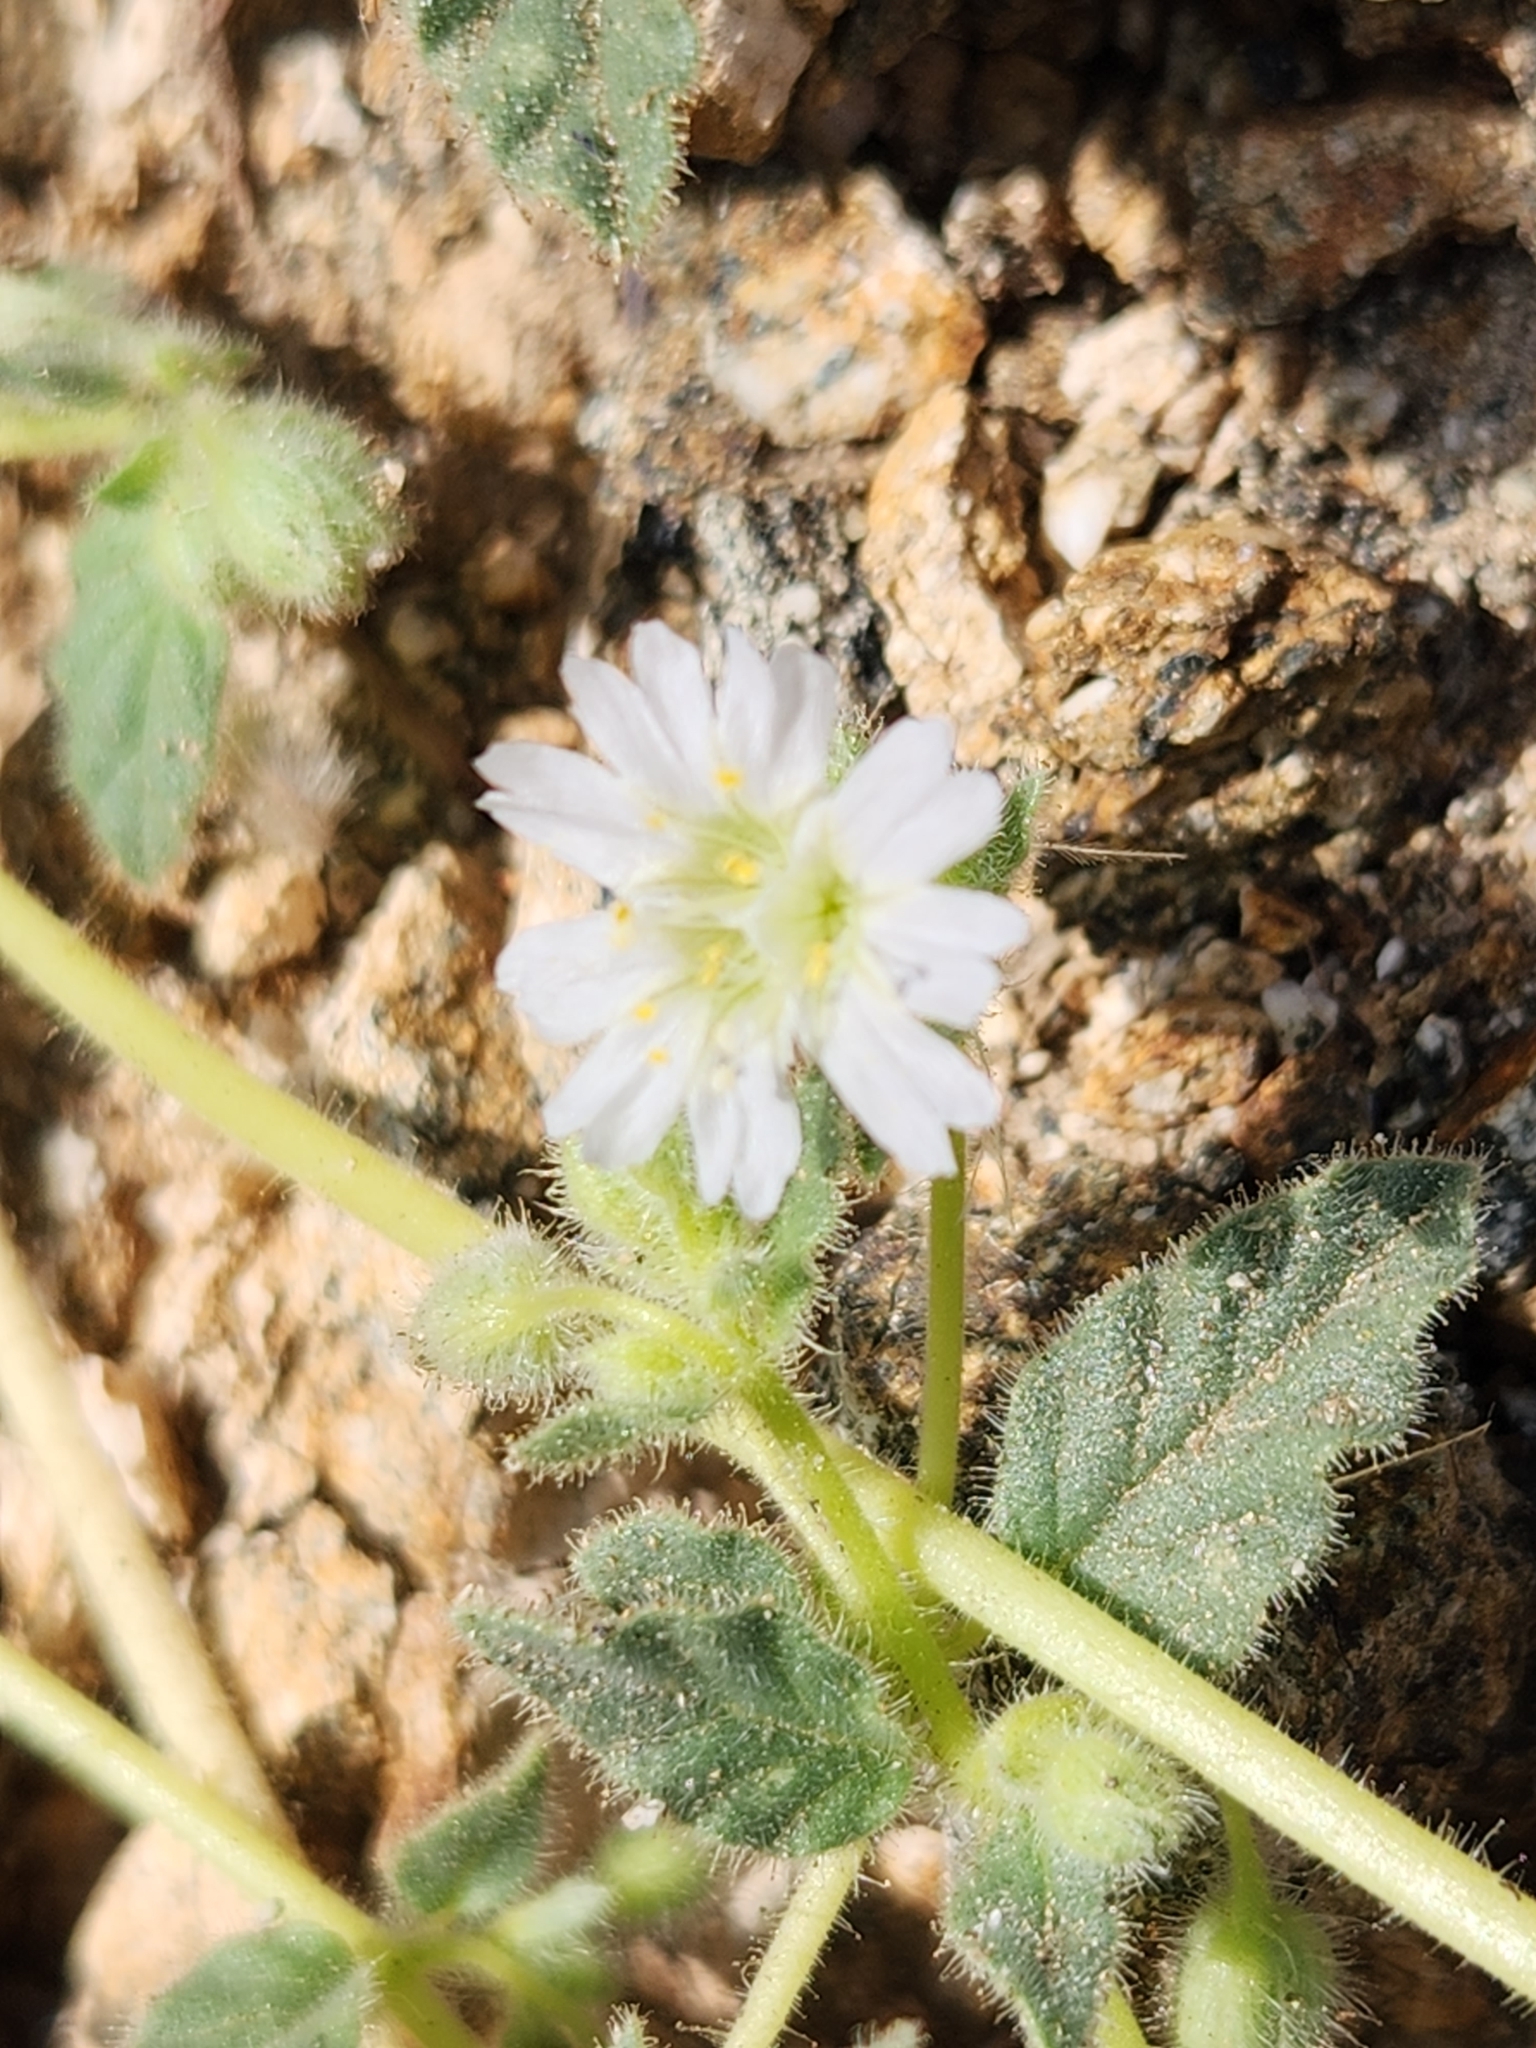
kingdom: Plantae
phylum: Tracheophyta
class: Magnoliopsida
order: Caryophyllales
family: Nyctaginaceae
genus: Allionia
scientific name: Allionia incarnata
